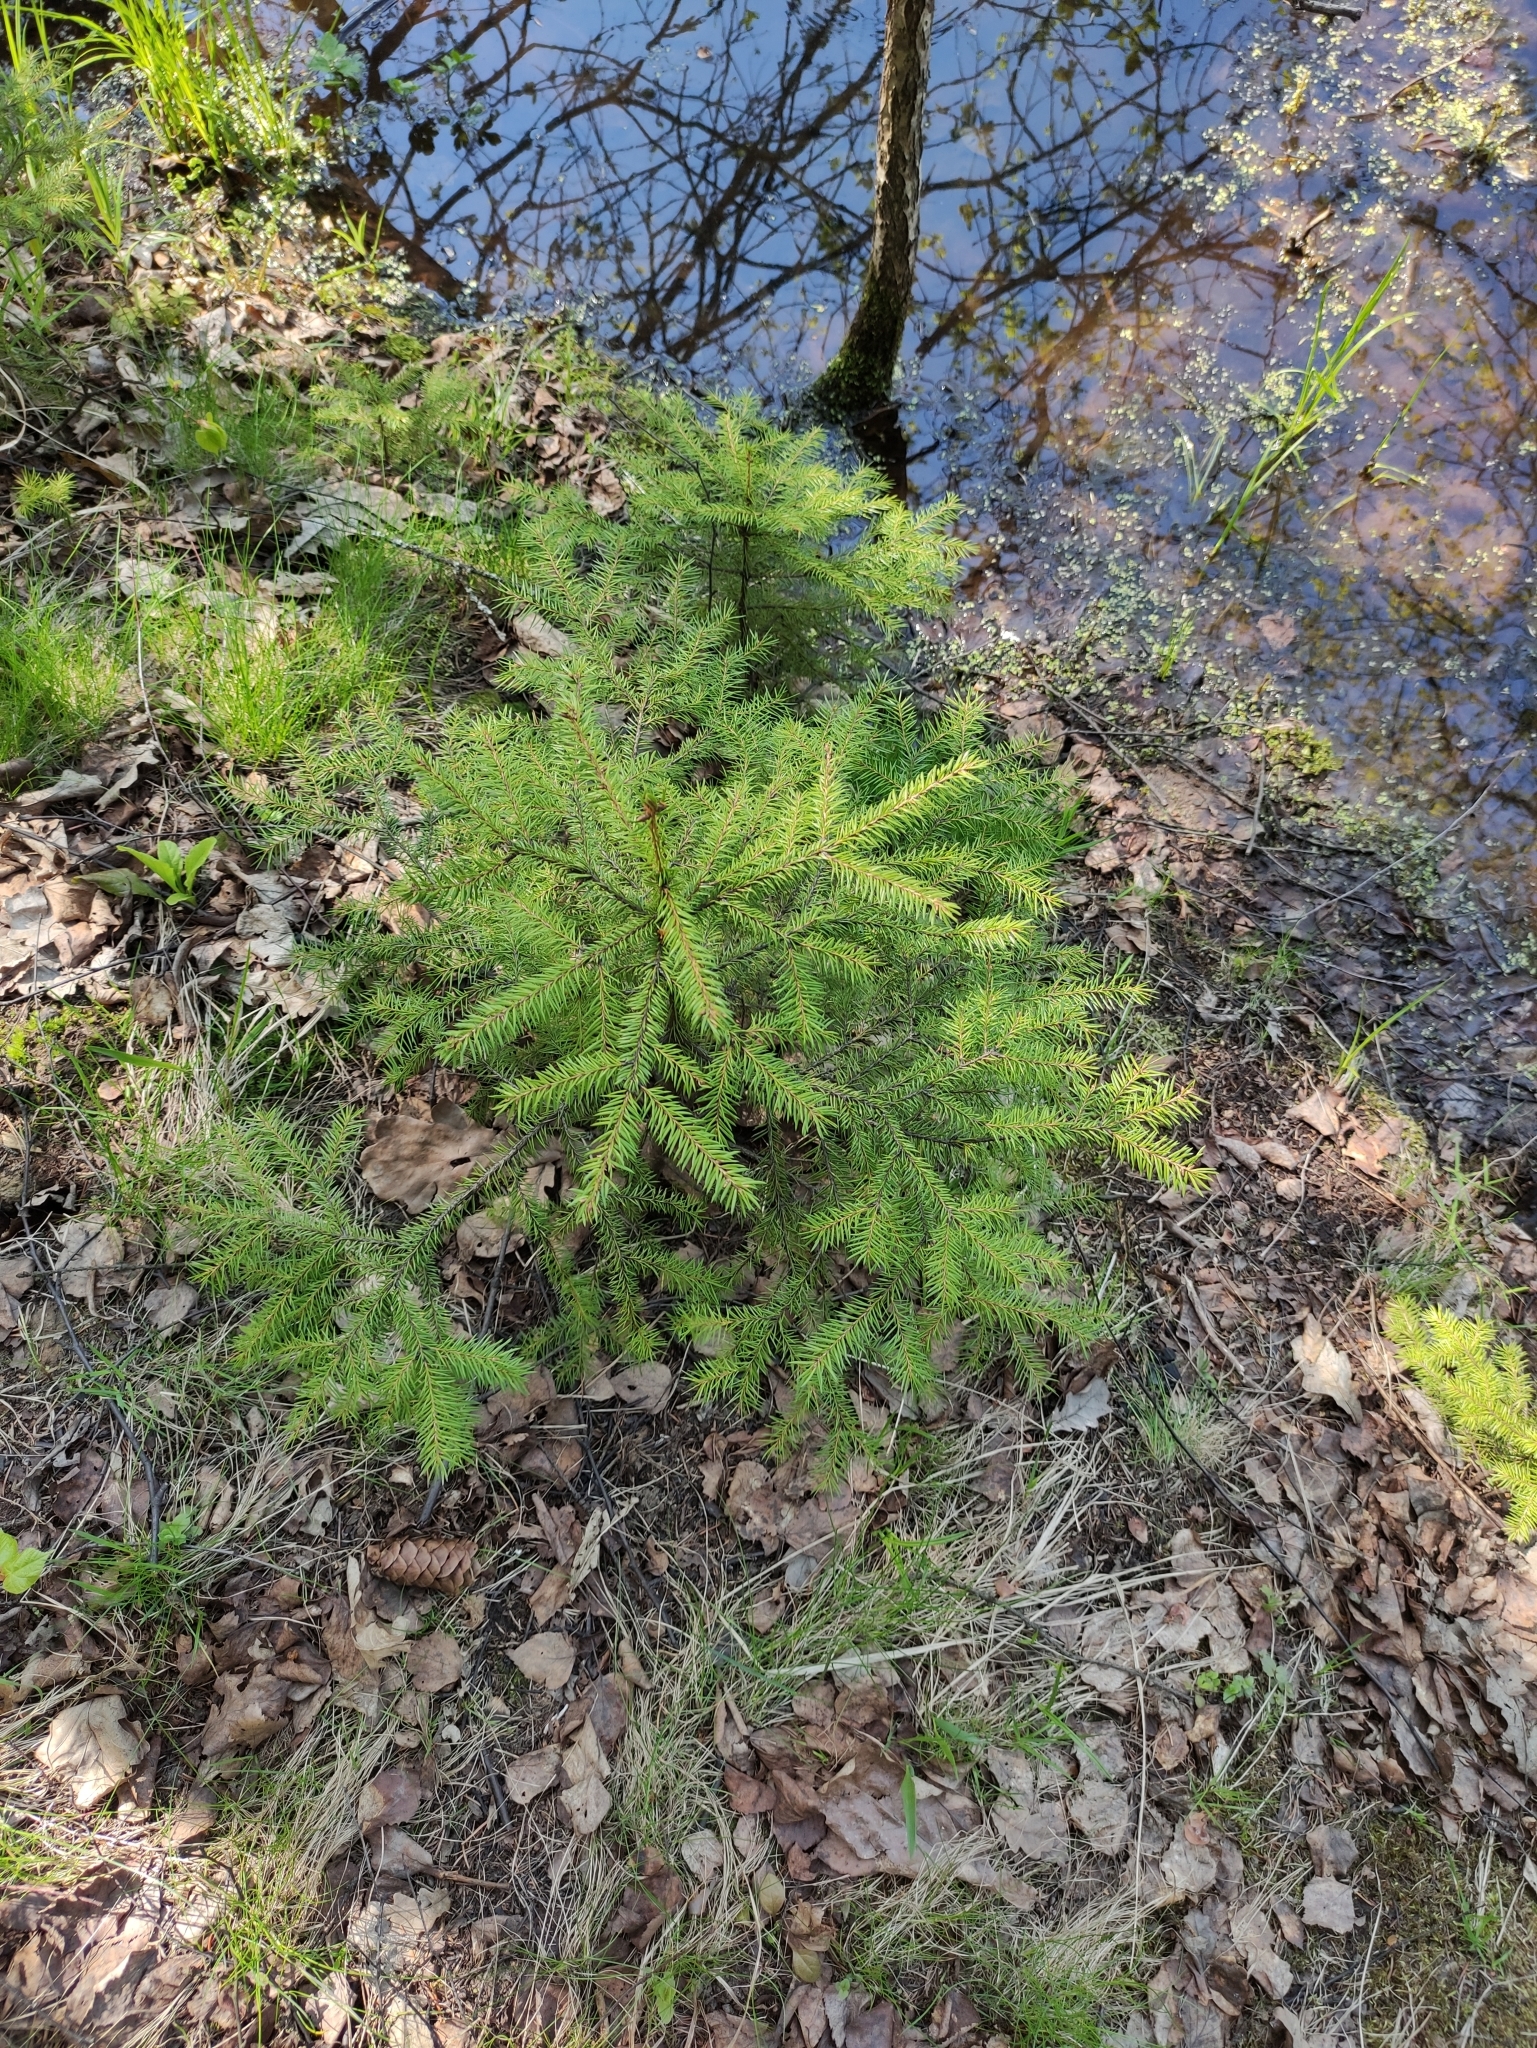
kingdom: Plantae
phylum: Tracheophyta
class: Pinopsida
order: Pinales
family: Pinaceae
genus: Picea
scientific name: Picea abies
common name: Norway spruce
